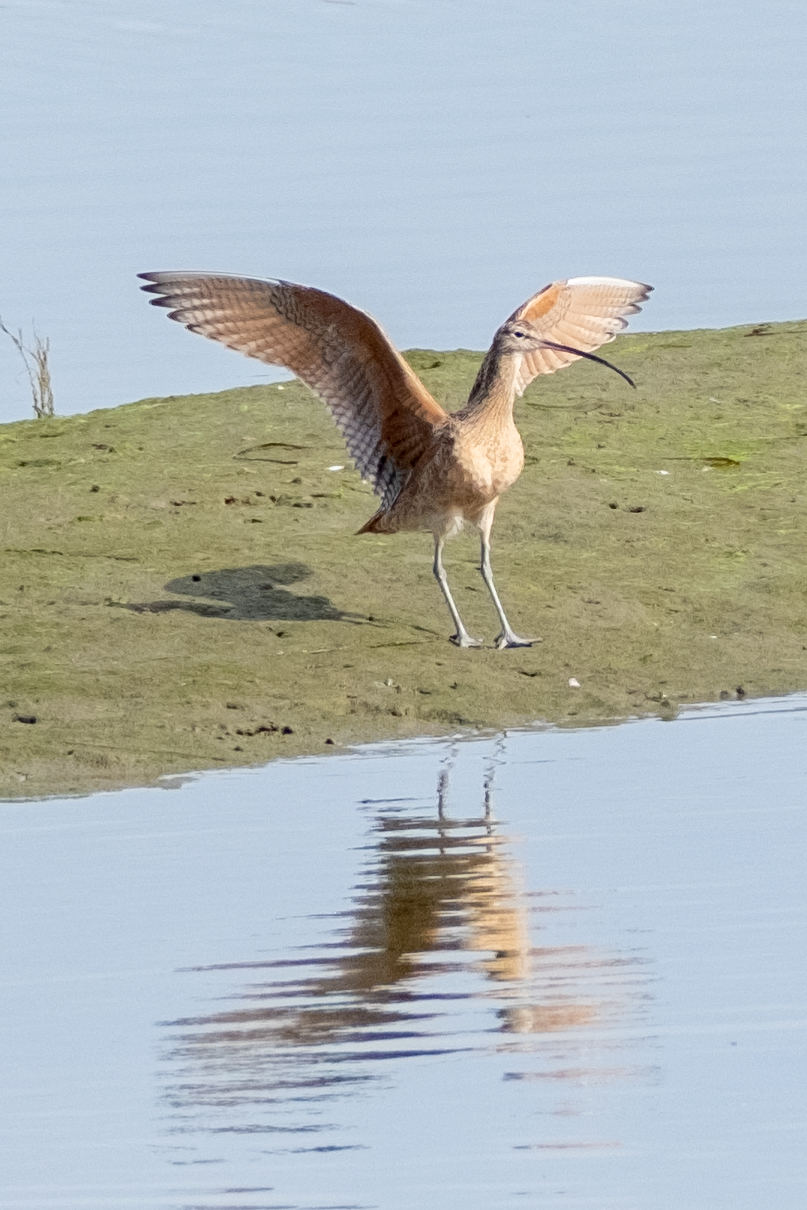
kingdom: Animalia
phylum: Chordata
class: Aves
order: Charadriiformes
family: Scolopacidae
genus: Numenius
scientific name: Numenius americanus
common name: Long-billed curlew
